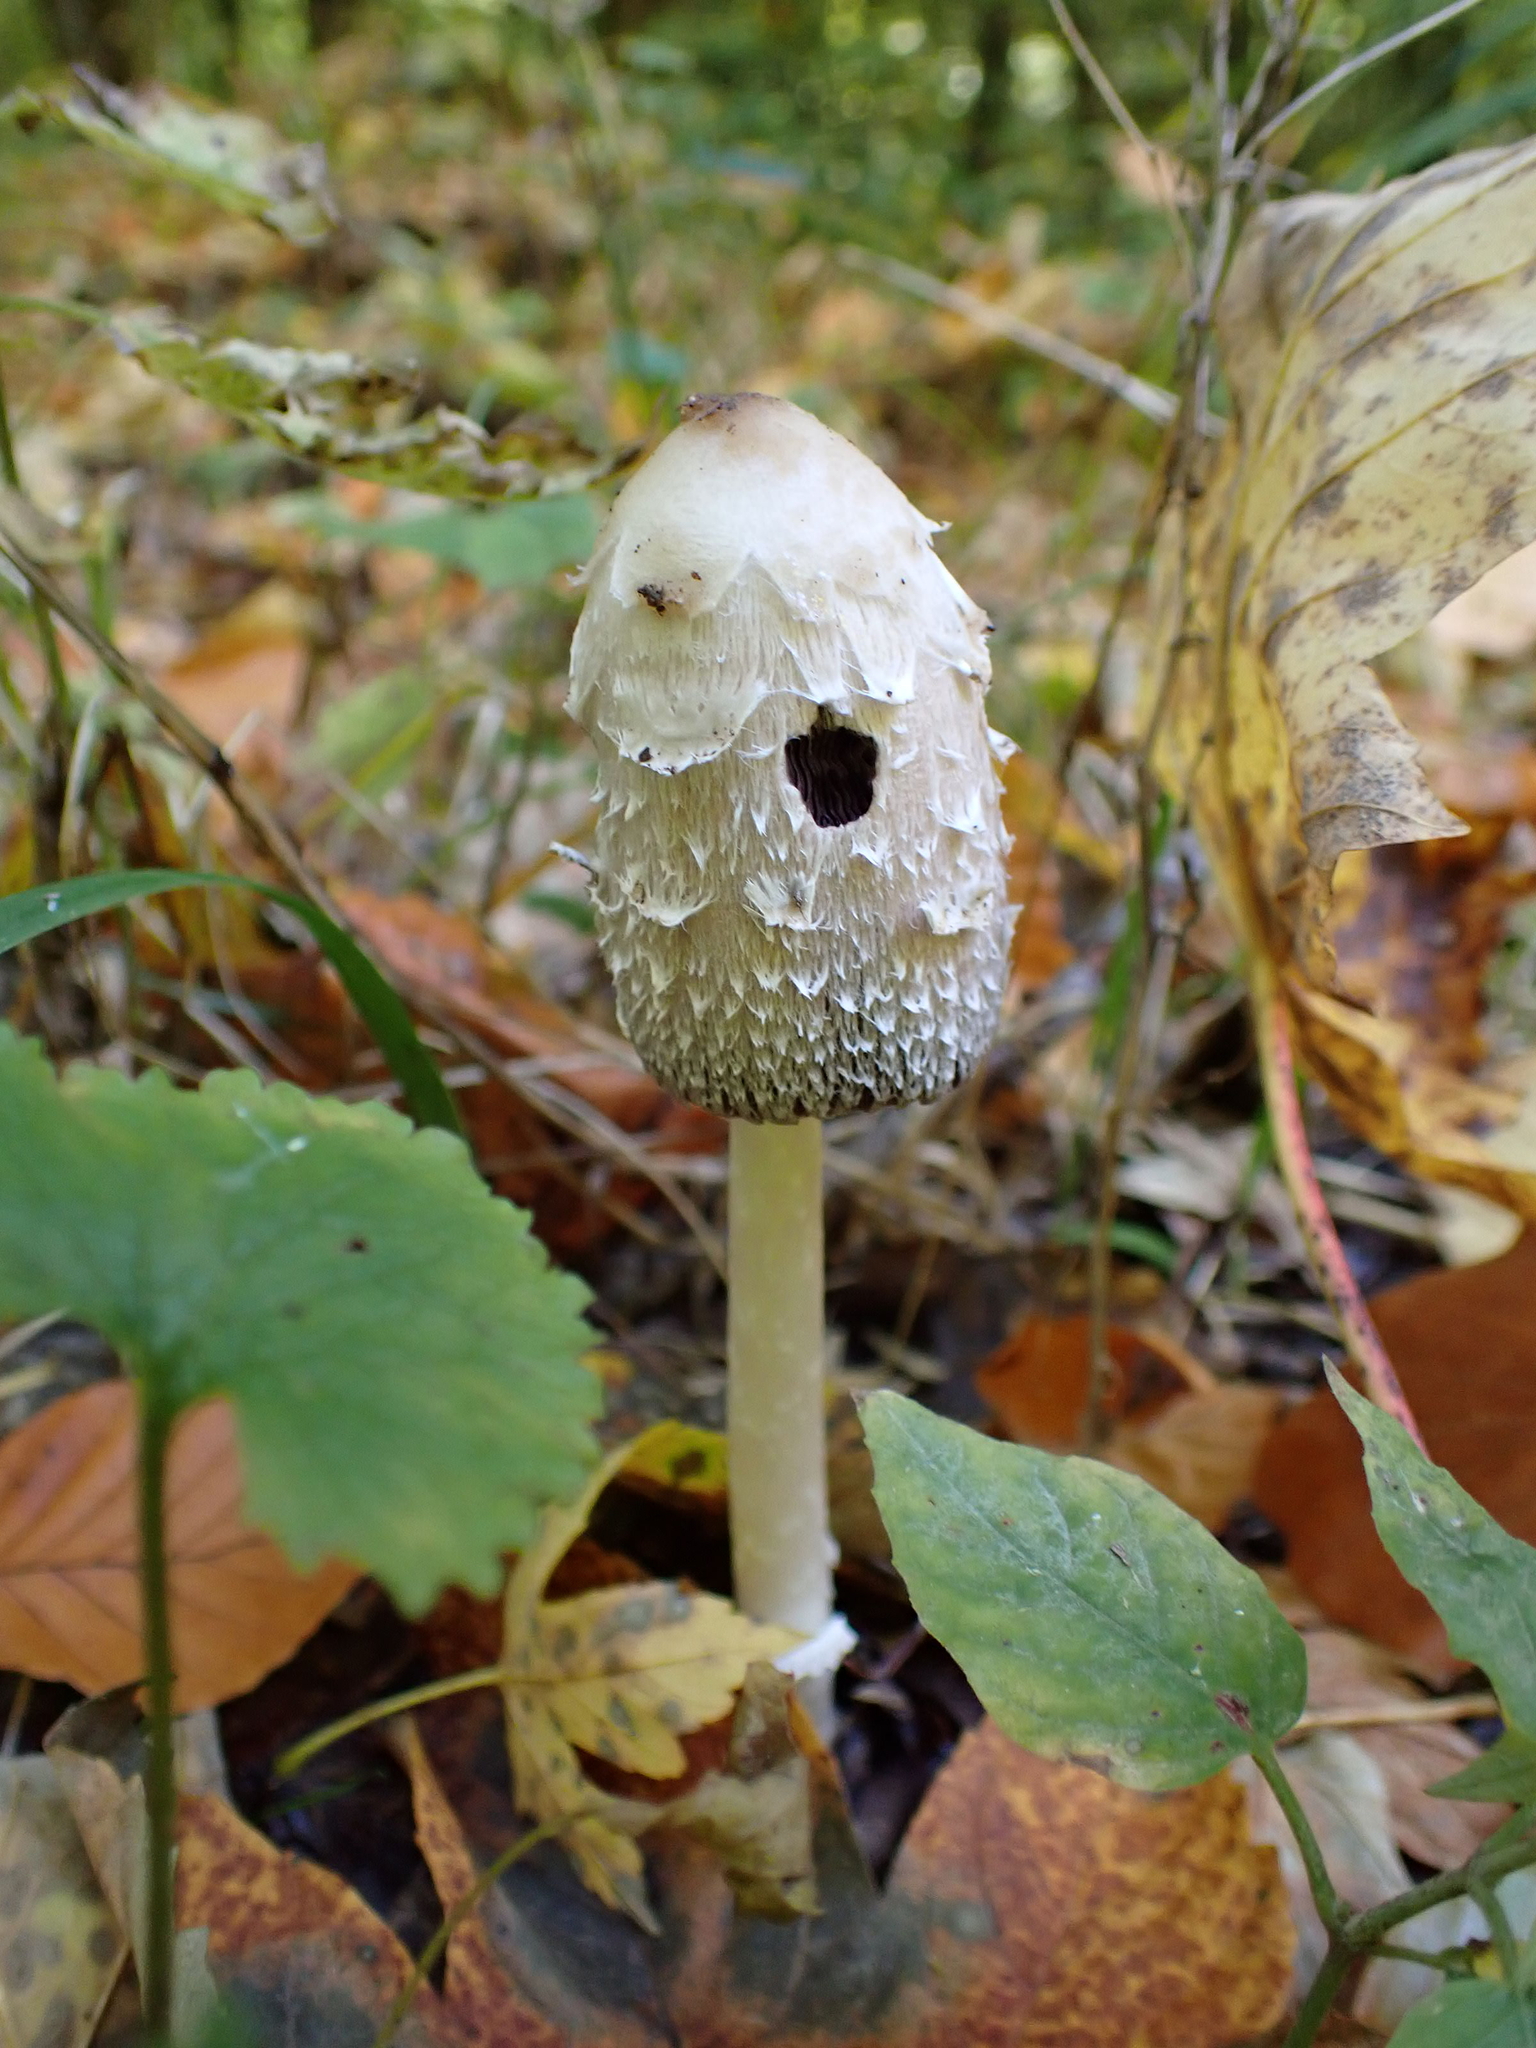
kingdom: Fungi
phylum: Basidiomycota
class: Agaricomycetes
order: Agaricales
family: Agaricaceae
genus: Coprinus
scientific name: Coprinus comatus
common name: Lawyer's wig
